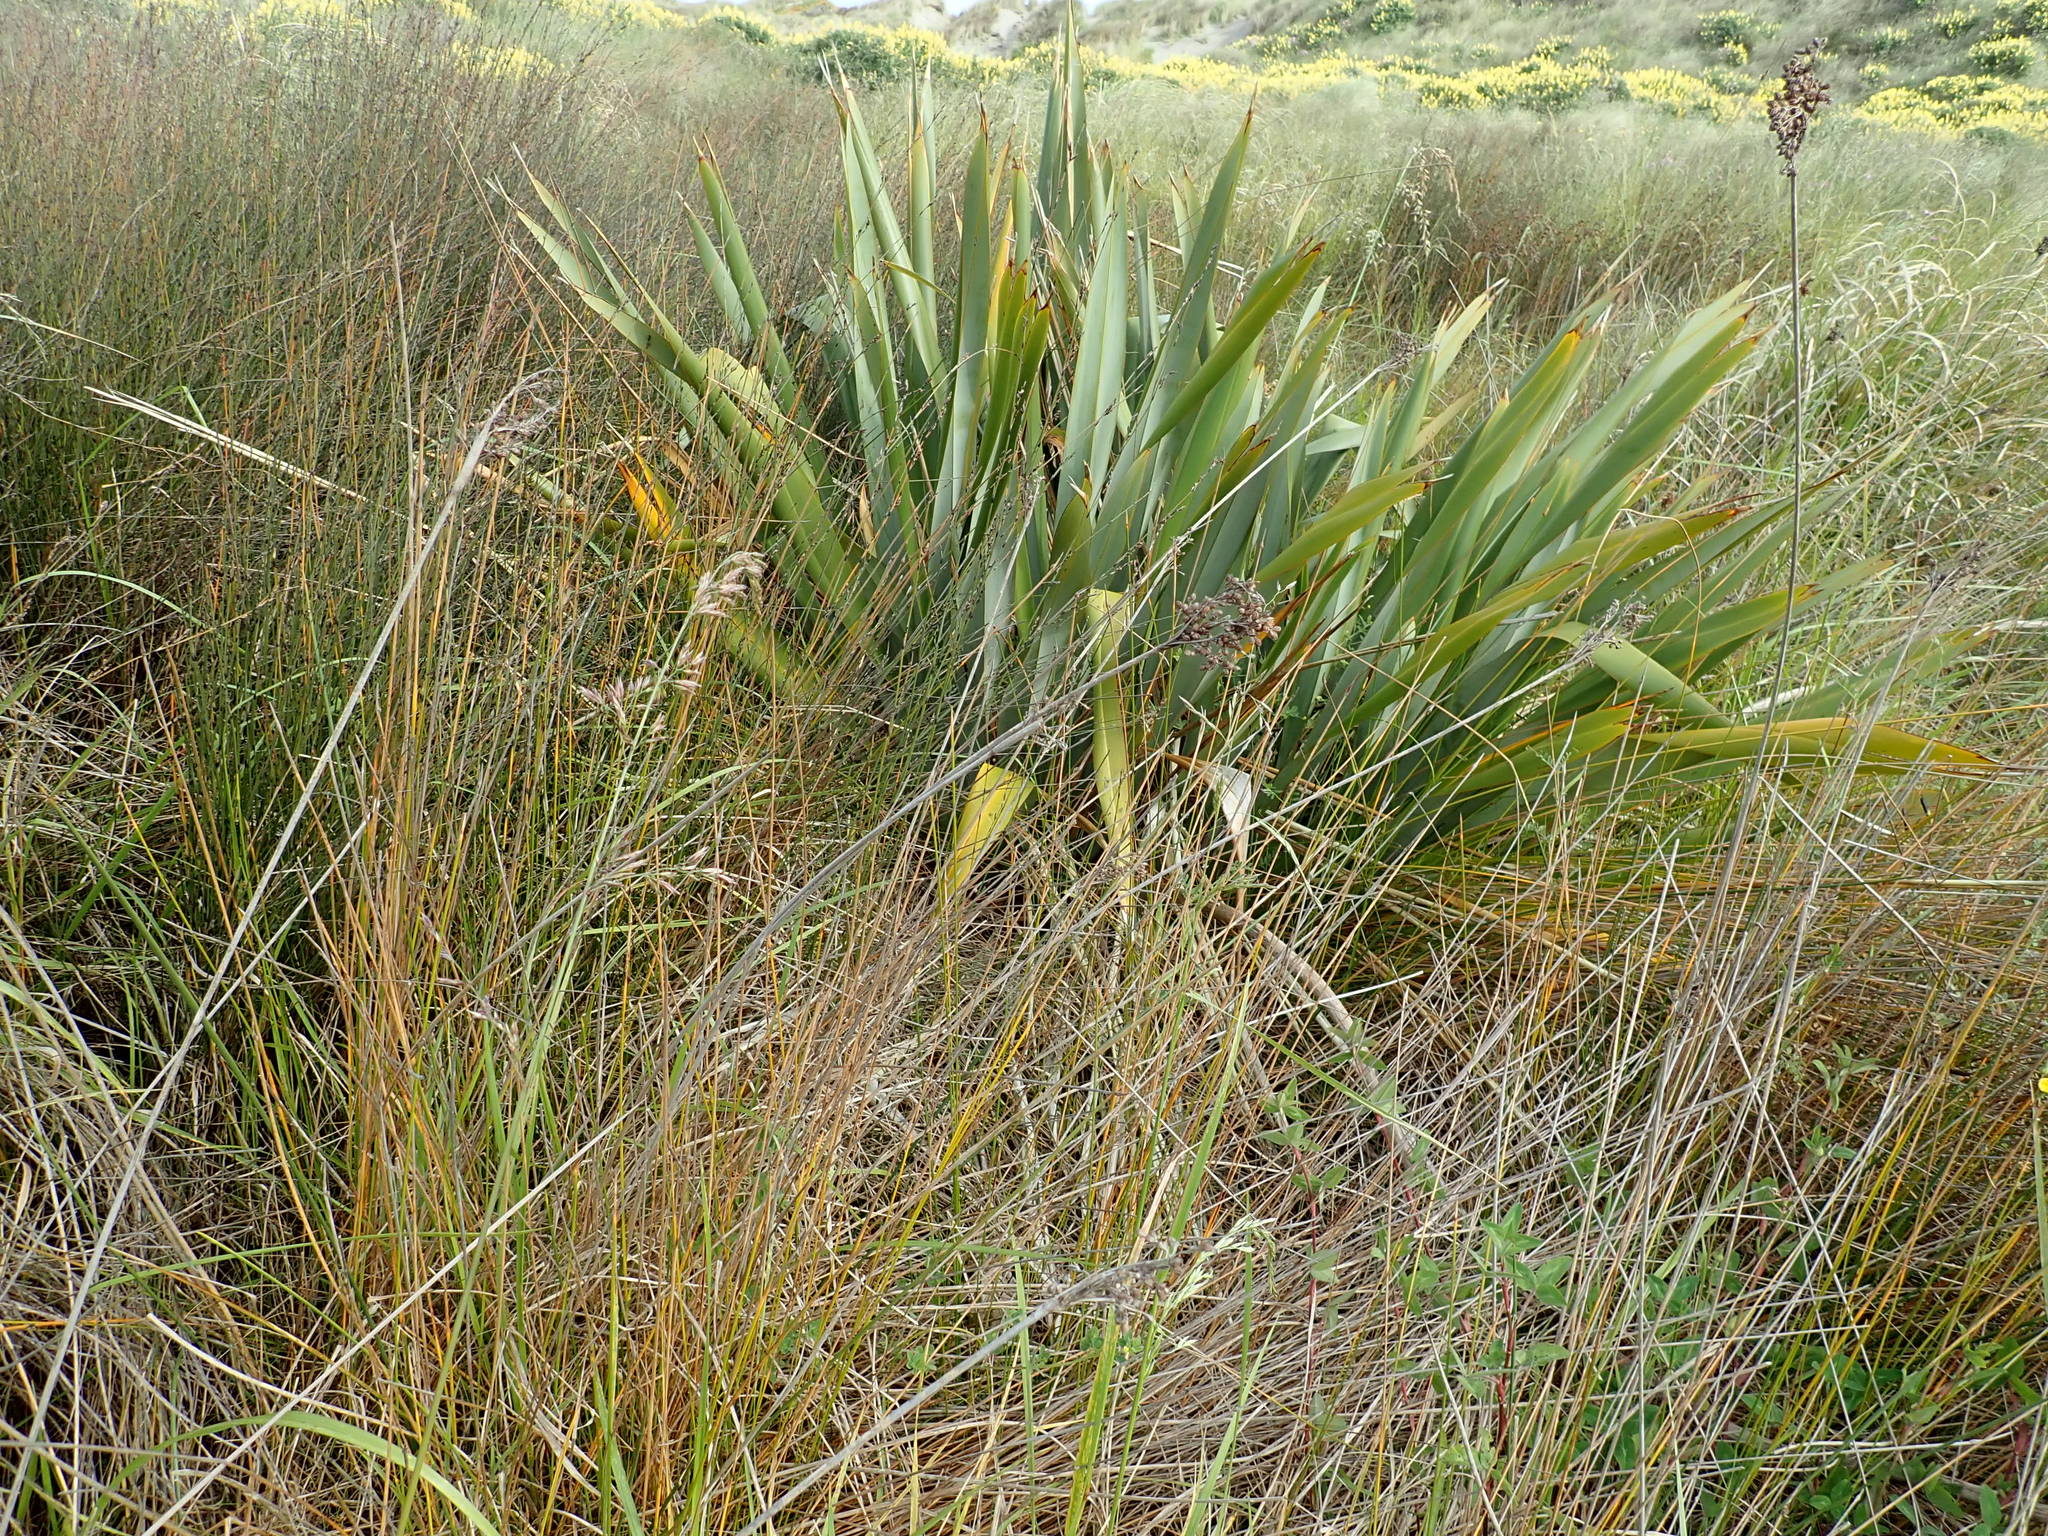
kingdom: Plantae
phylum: Tracheophyta
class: Liliopsida
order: Asparagales
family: Asphodelaceae
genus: Phormium
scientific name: Phormium tenax
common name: New zealand flax
